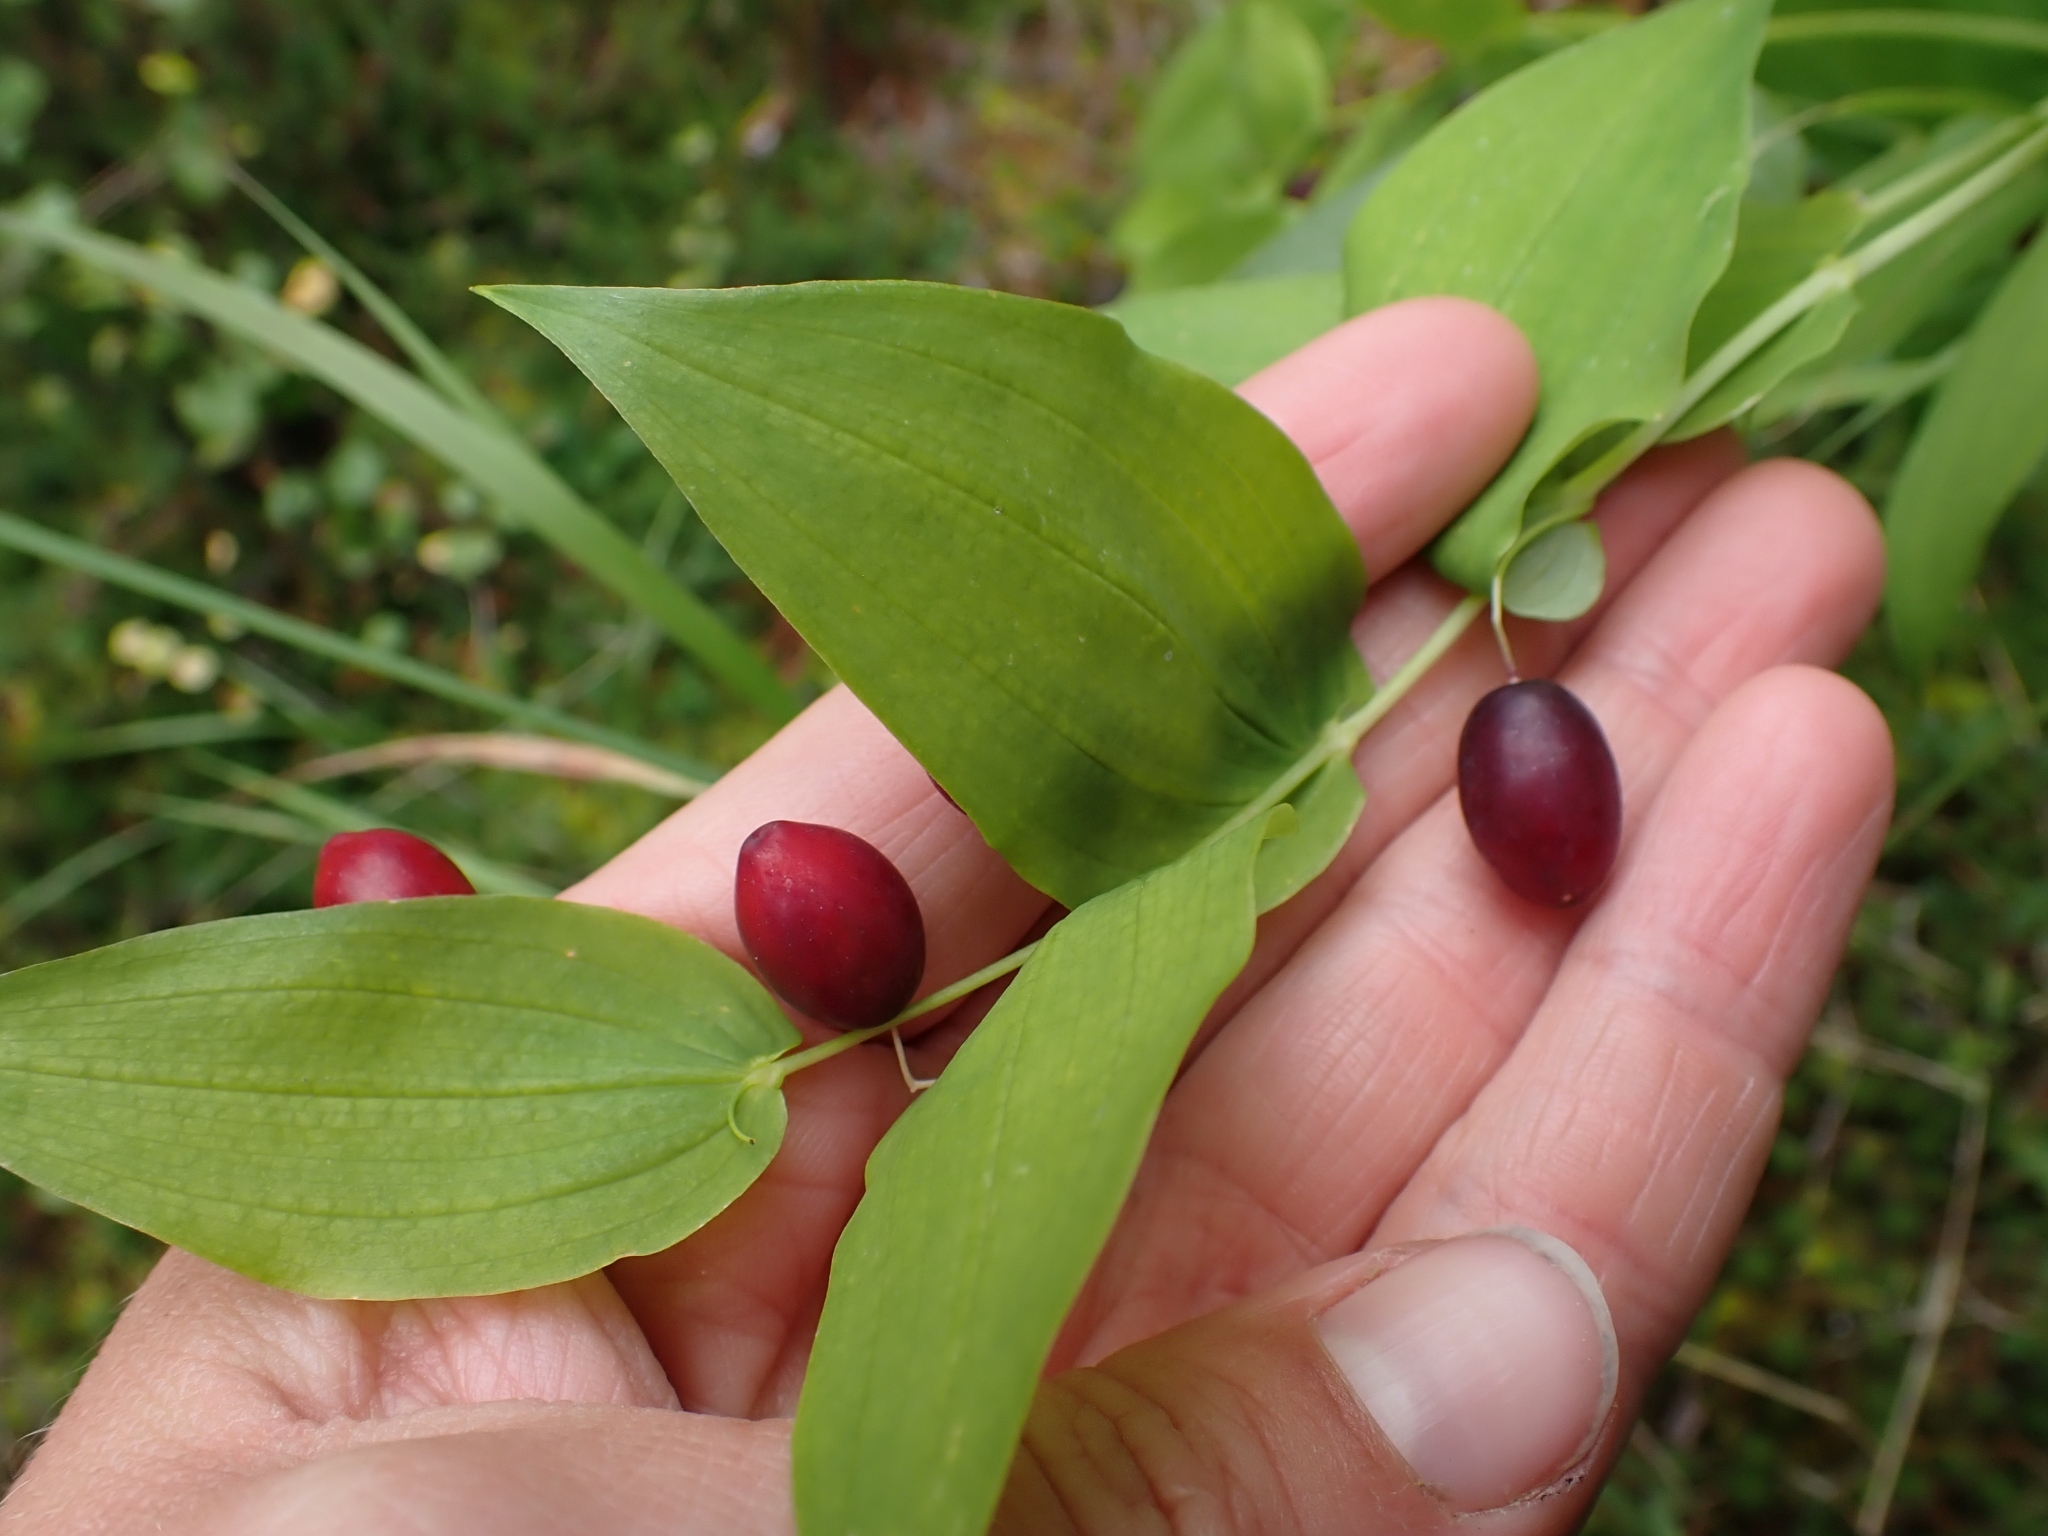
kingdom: Plantae
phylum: Tracheophyta
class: Liliopsida
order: Liliales
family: Liliaceae
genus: Streptopus
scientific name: Streptopus amplexifolius
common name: Clasp twisted stalk
